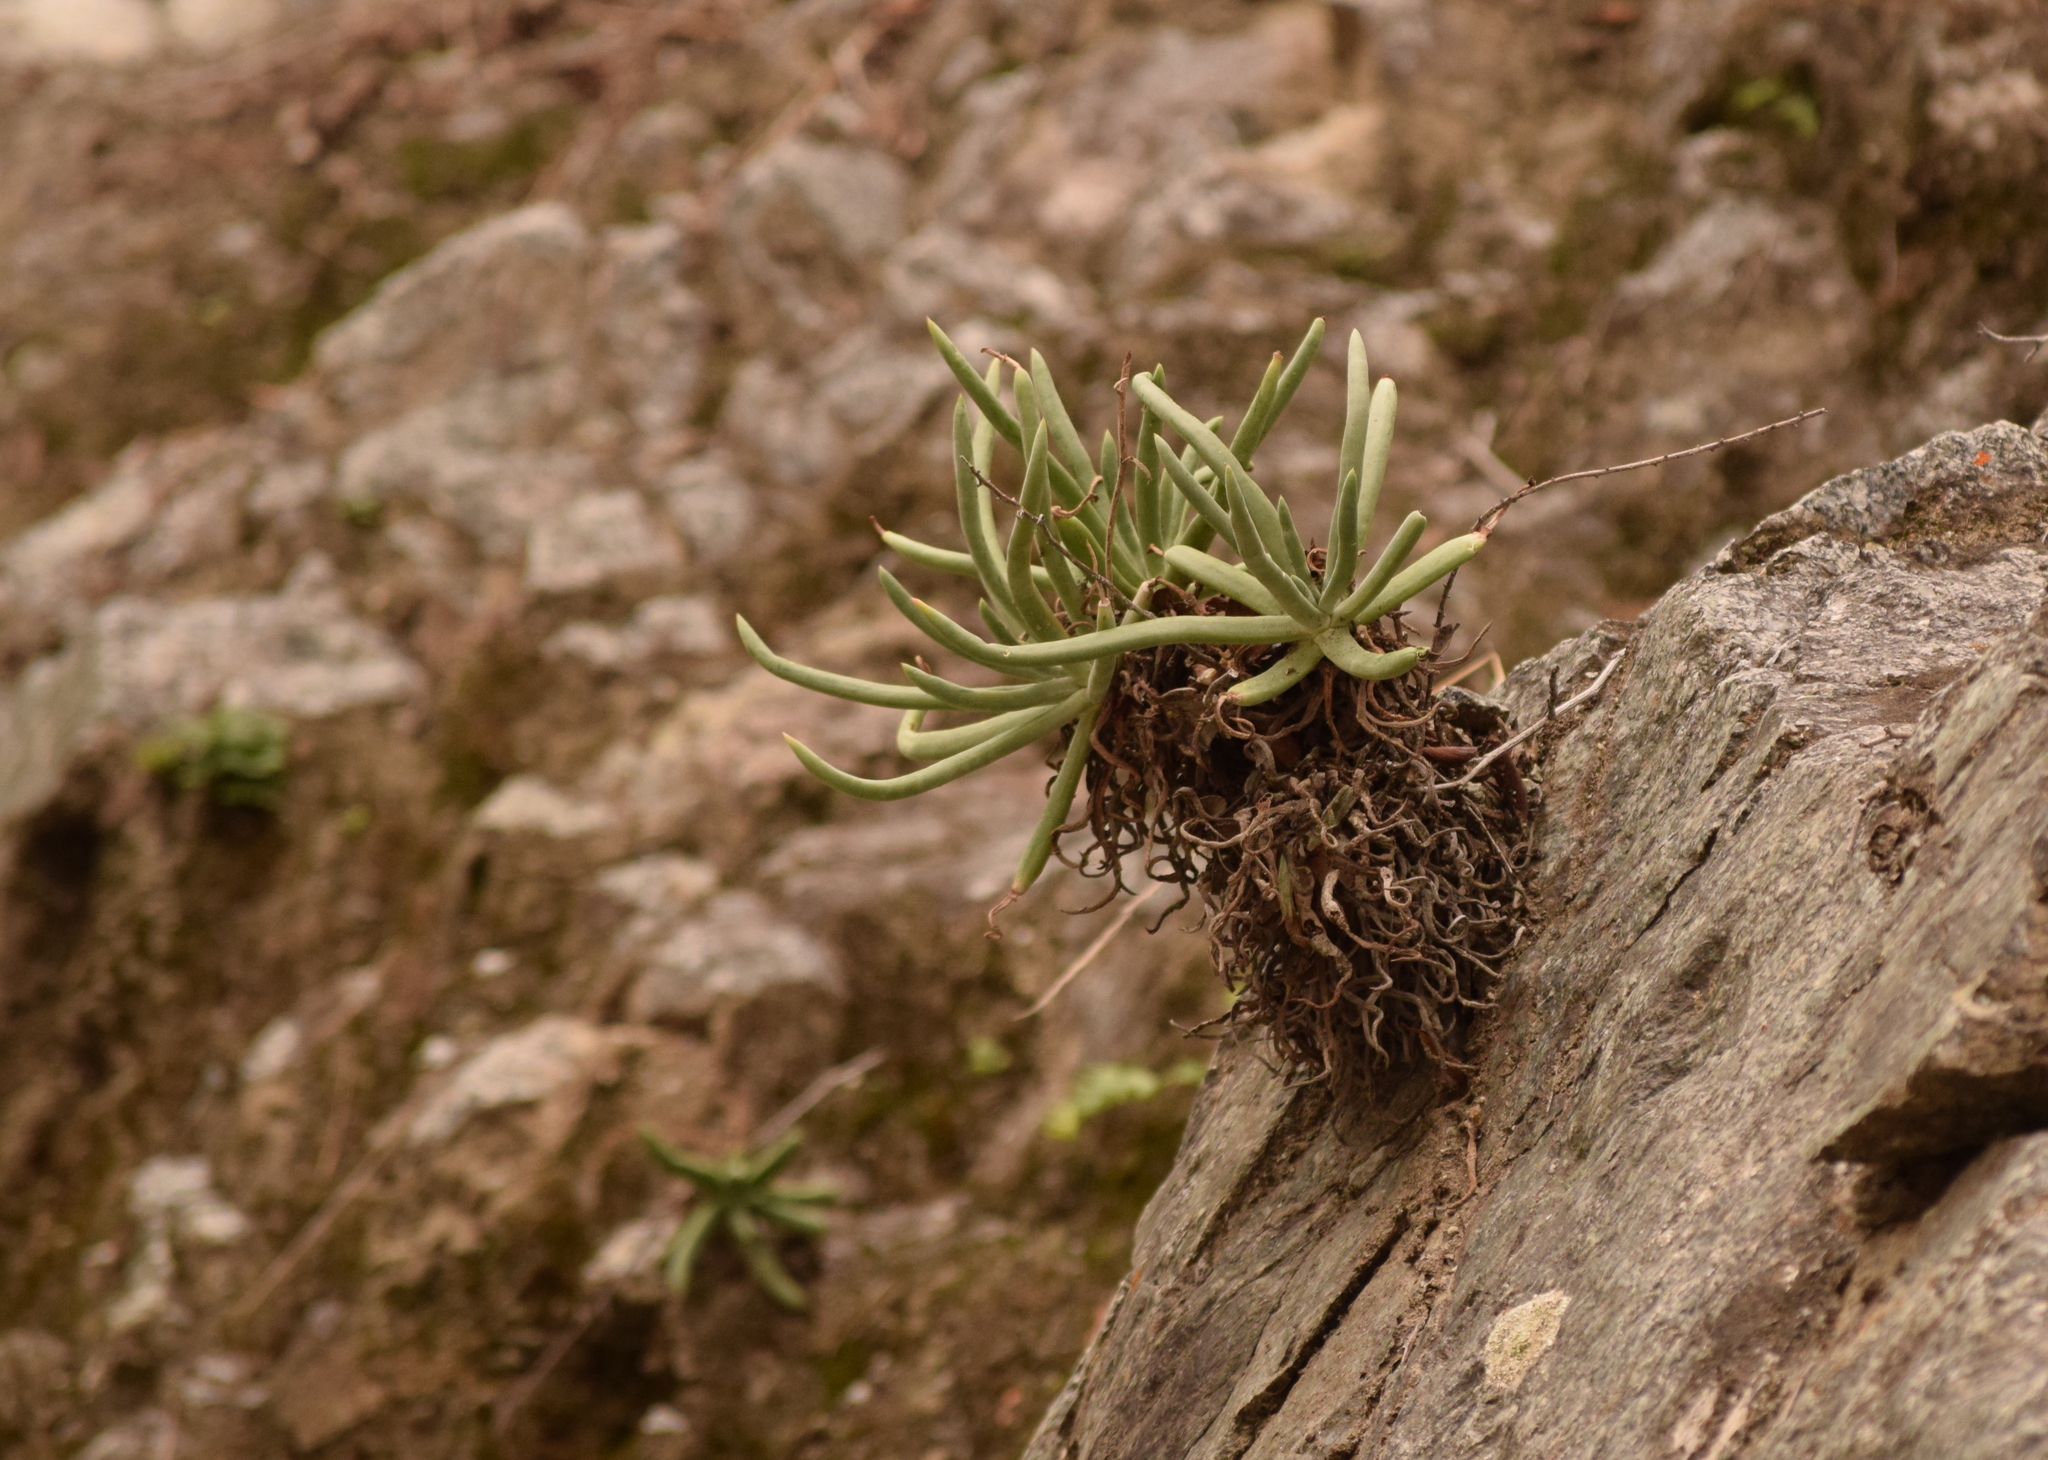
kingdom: Plantae
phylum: Tracheophyta
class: Magnoliopsida
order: Saxifragales
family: Crassulaceae
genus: Dudleya
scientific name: Dudleya densiflora
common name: San gabriel mountains dudleya
